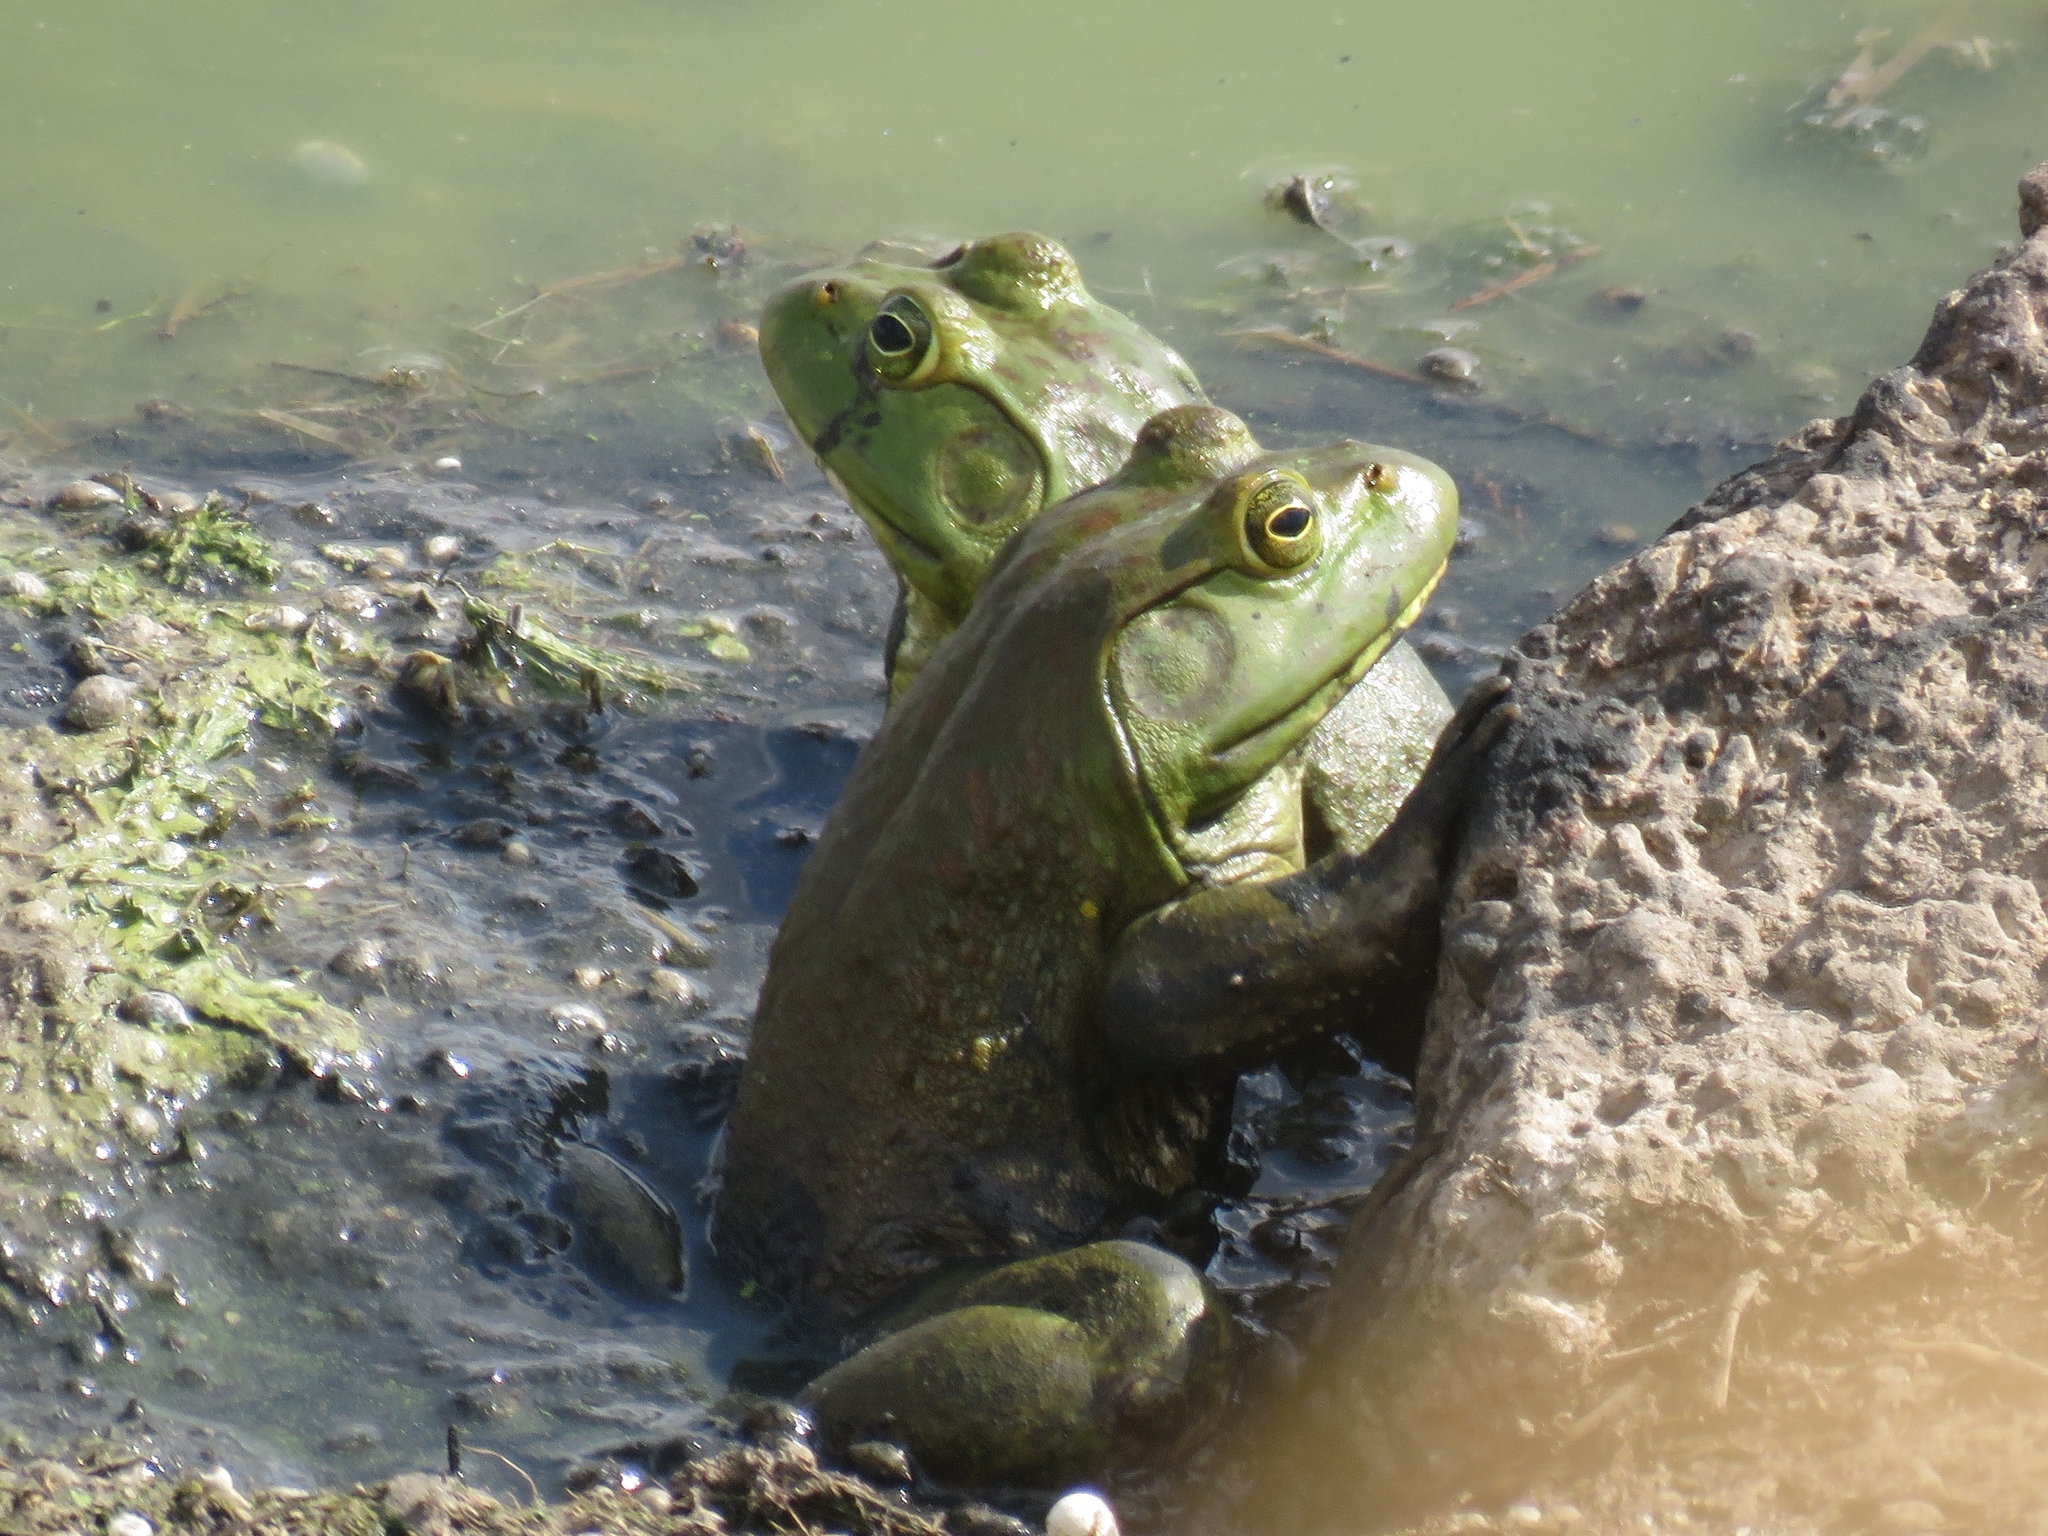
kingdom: Animalia
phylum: Chordata
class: Amphibia
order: Anura
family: Ranidae
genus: Lithobates
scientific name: Lithobates catesbeianus
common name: American bullfrog
